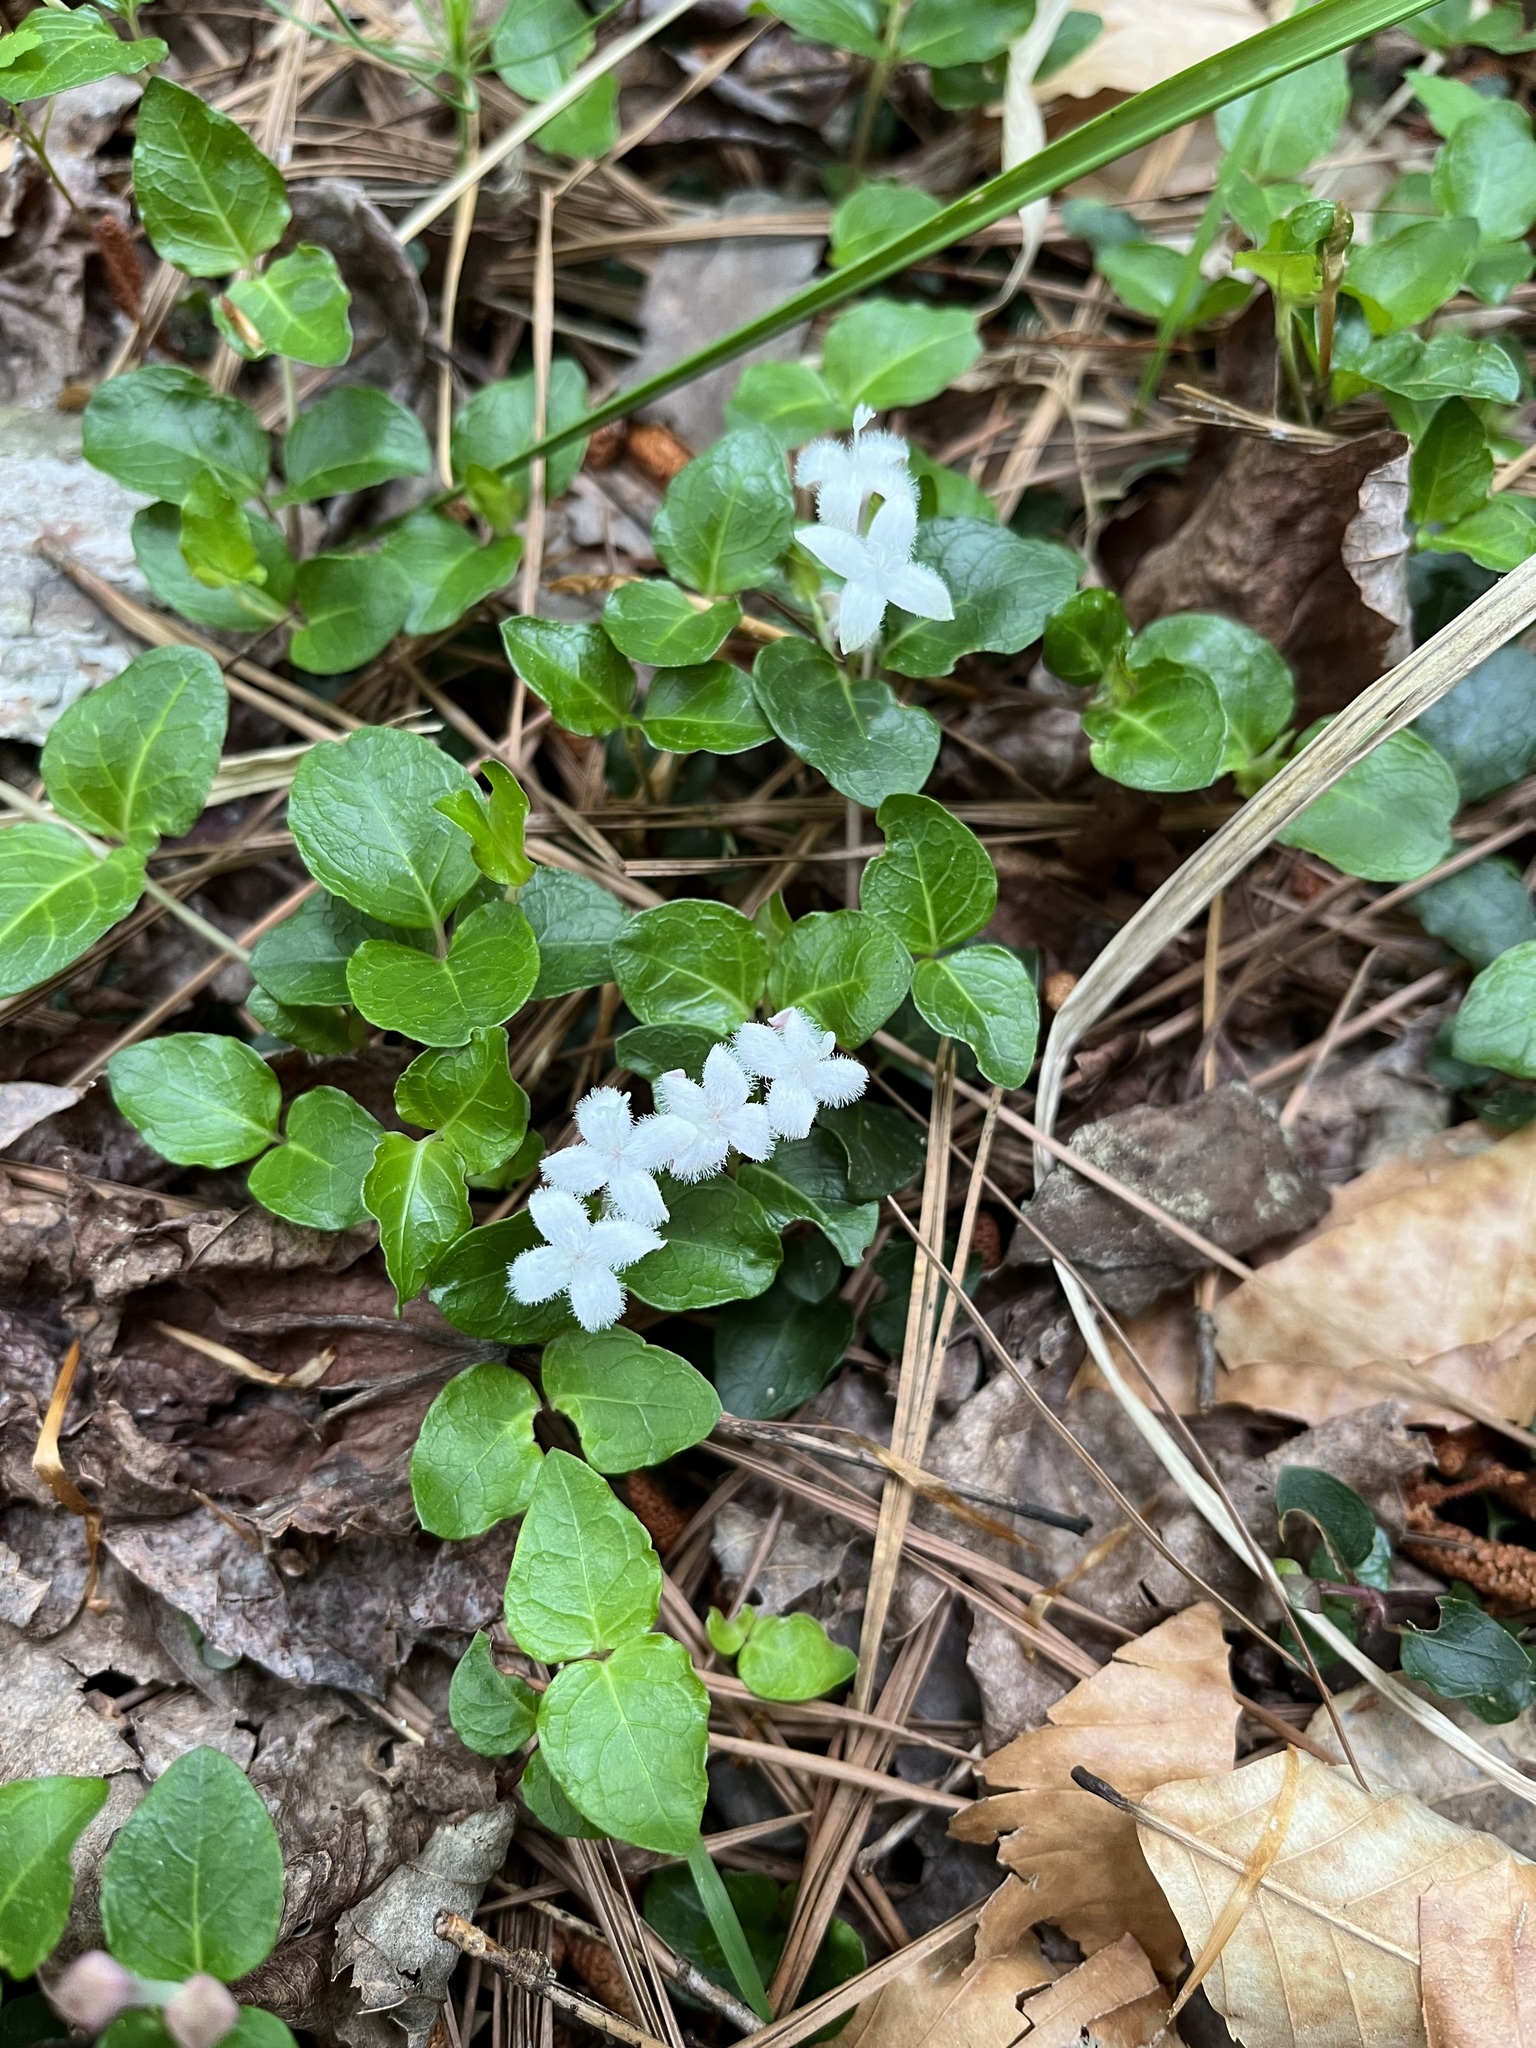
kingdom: Plantae
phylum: Tracheophyta
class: Magnoliopsida
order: Gentianales
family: Rubiaceae
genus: Mitchella
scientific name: Mitchella repens
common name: Partridge-berry
